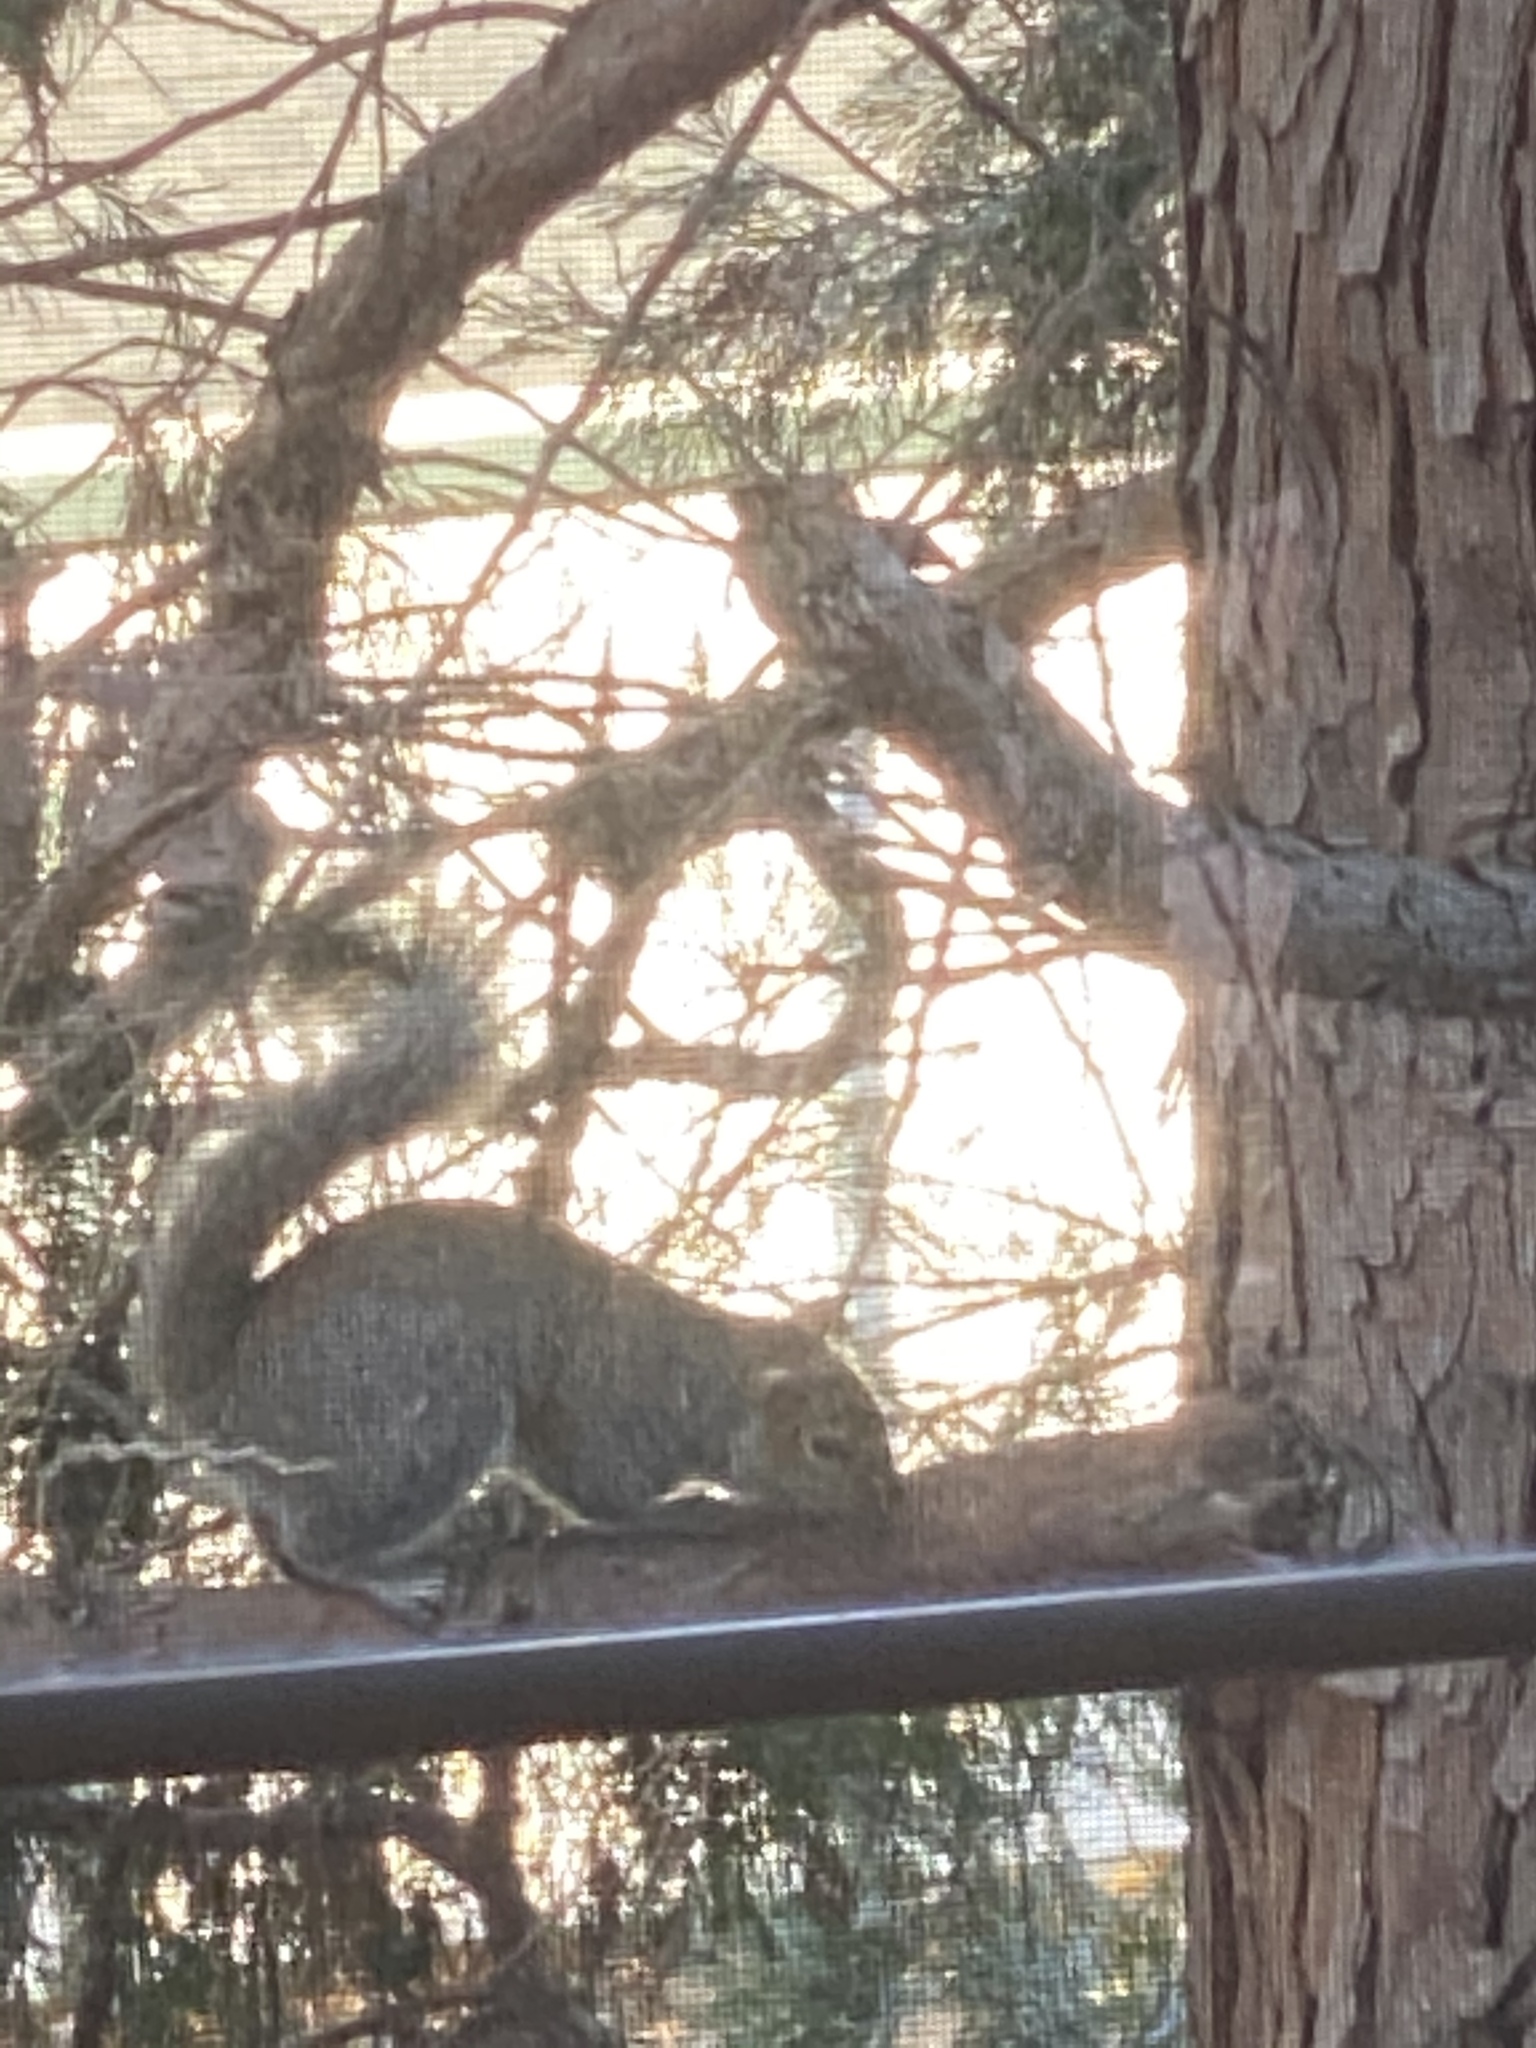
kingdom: Animalia
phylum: Chordata
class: Mammalia
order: Rodentia
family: Sciuridae
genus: Sciurus
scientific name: Sciurus carolinensis
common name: Eastern gray squirrel
